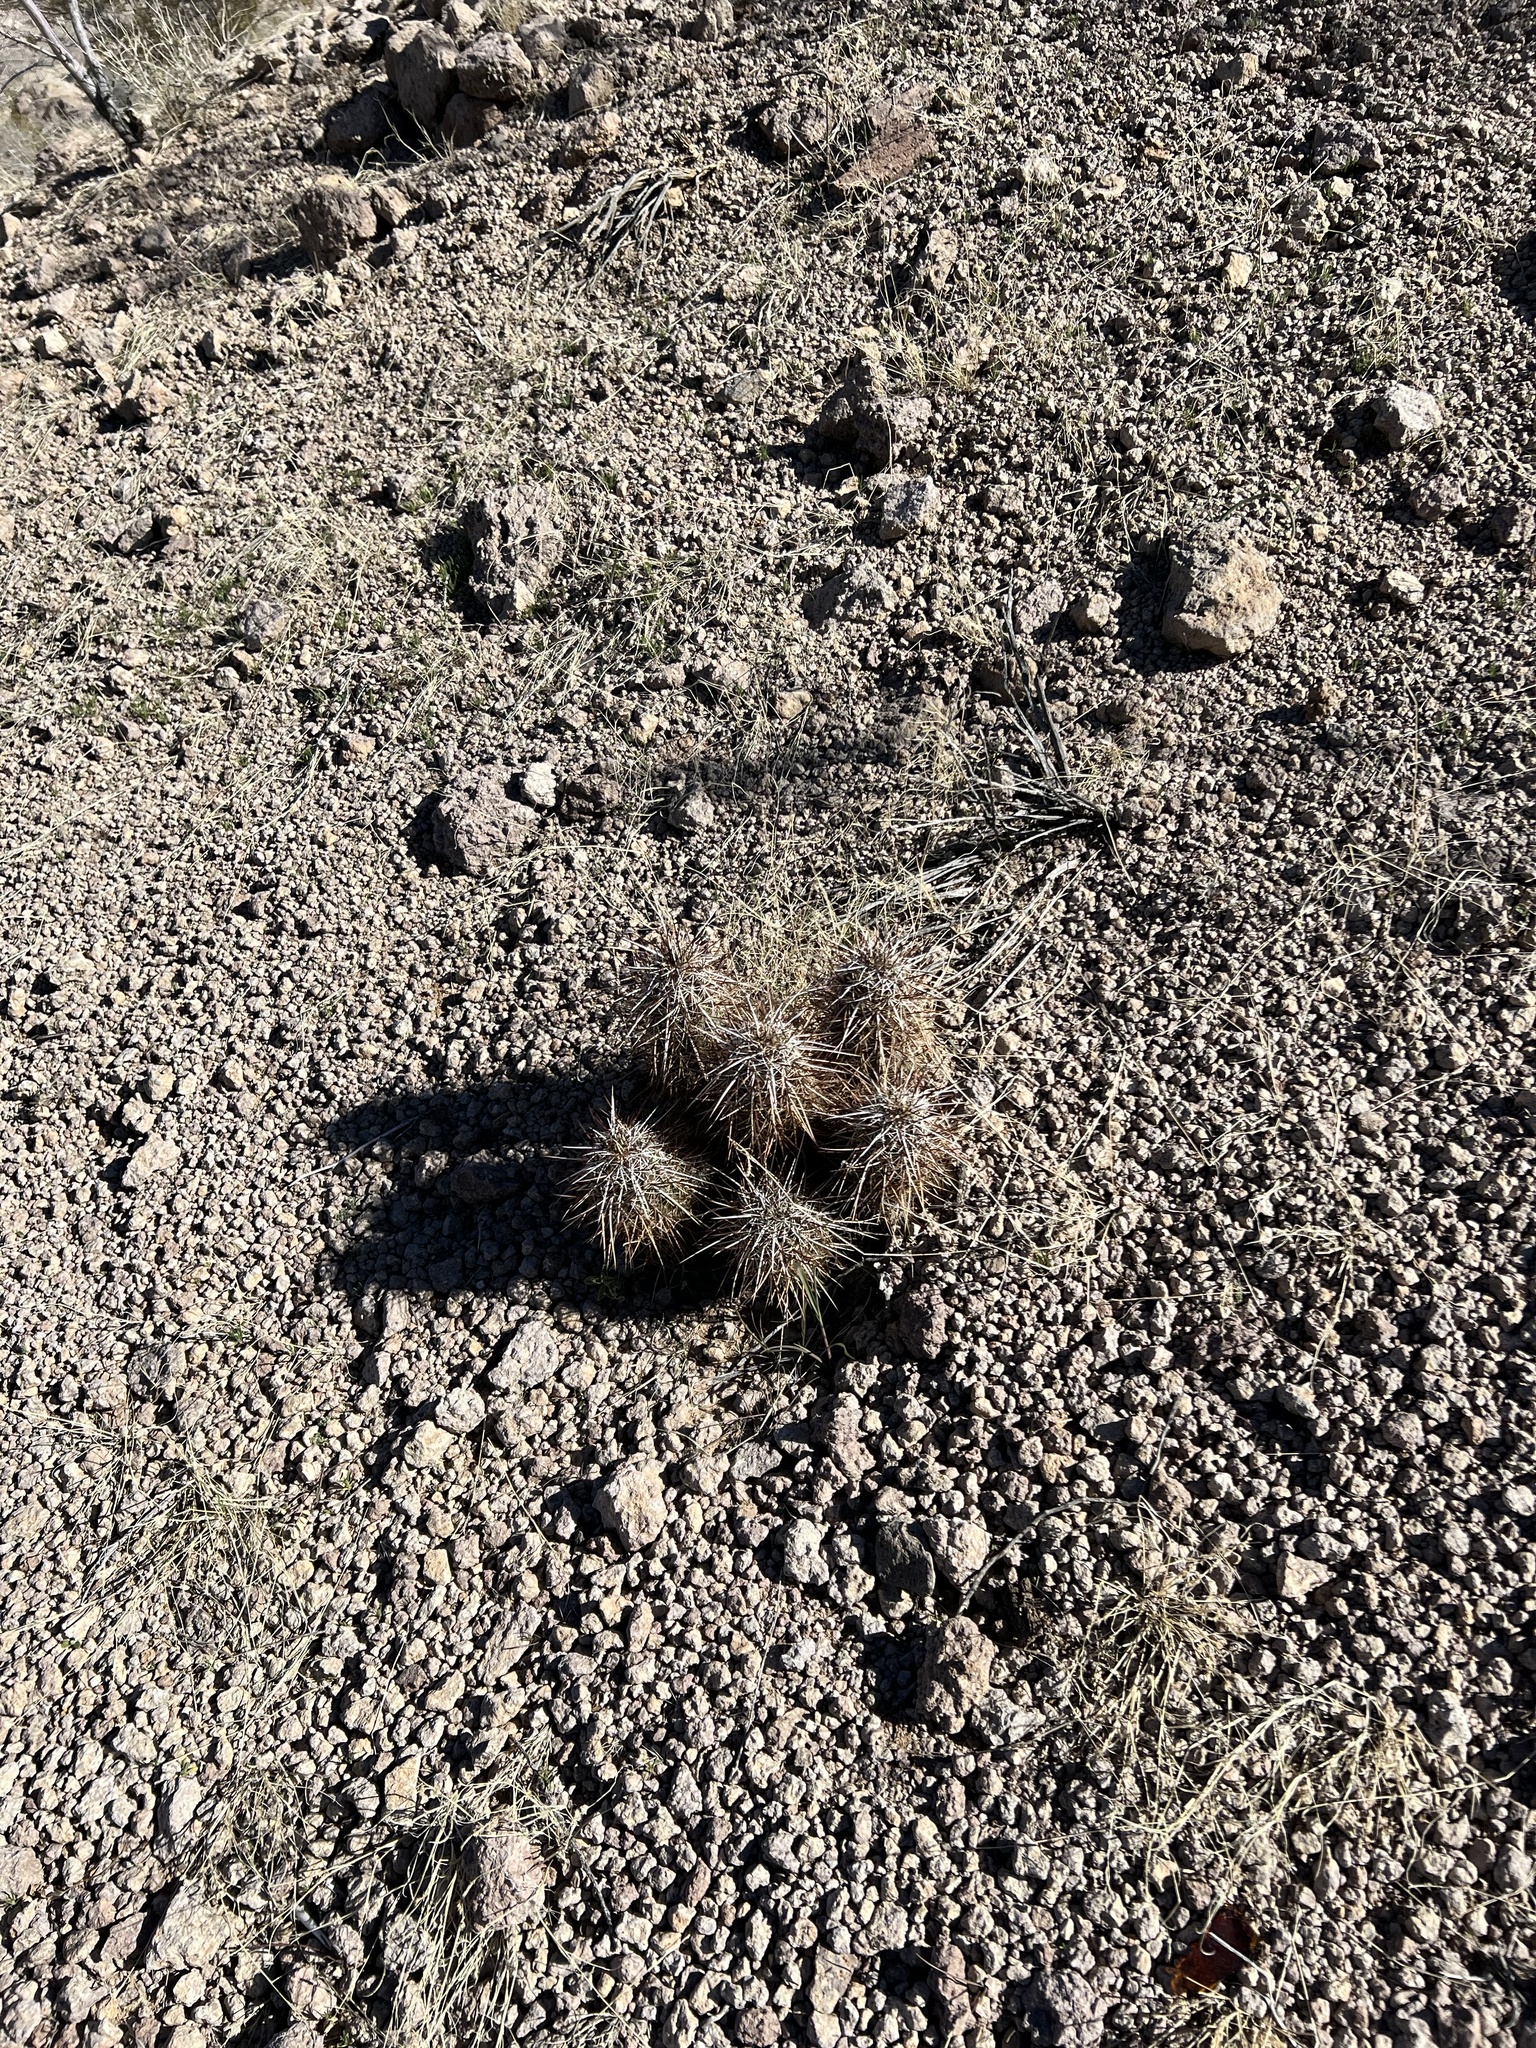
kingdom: Plantae
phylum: Tracheophyta
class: Magnoliopsida
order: Caryophyllales
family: Cactaceae
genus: Echinocereus
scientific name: Echinocereus engelmannii
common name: Engelmann's hedgehog cactus
